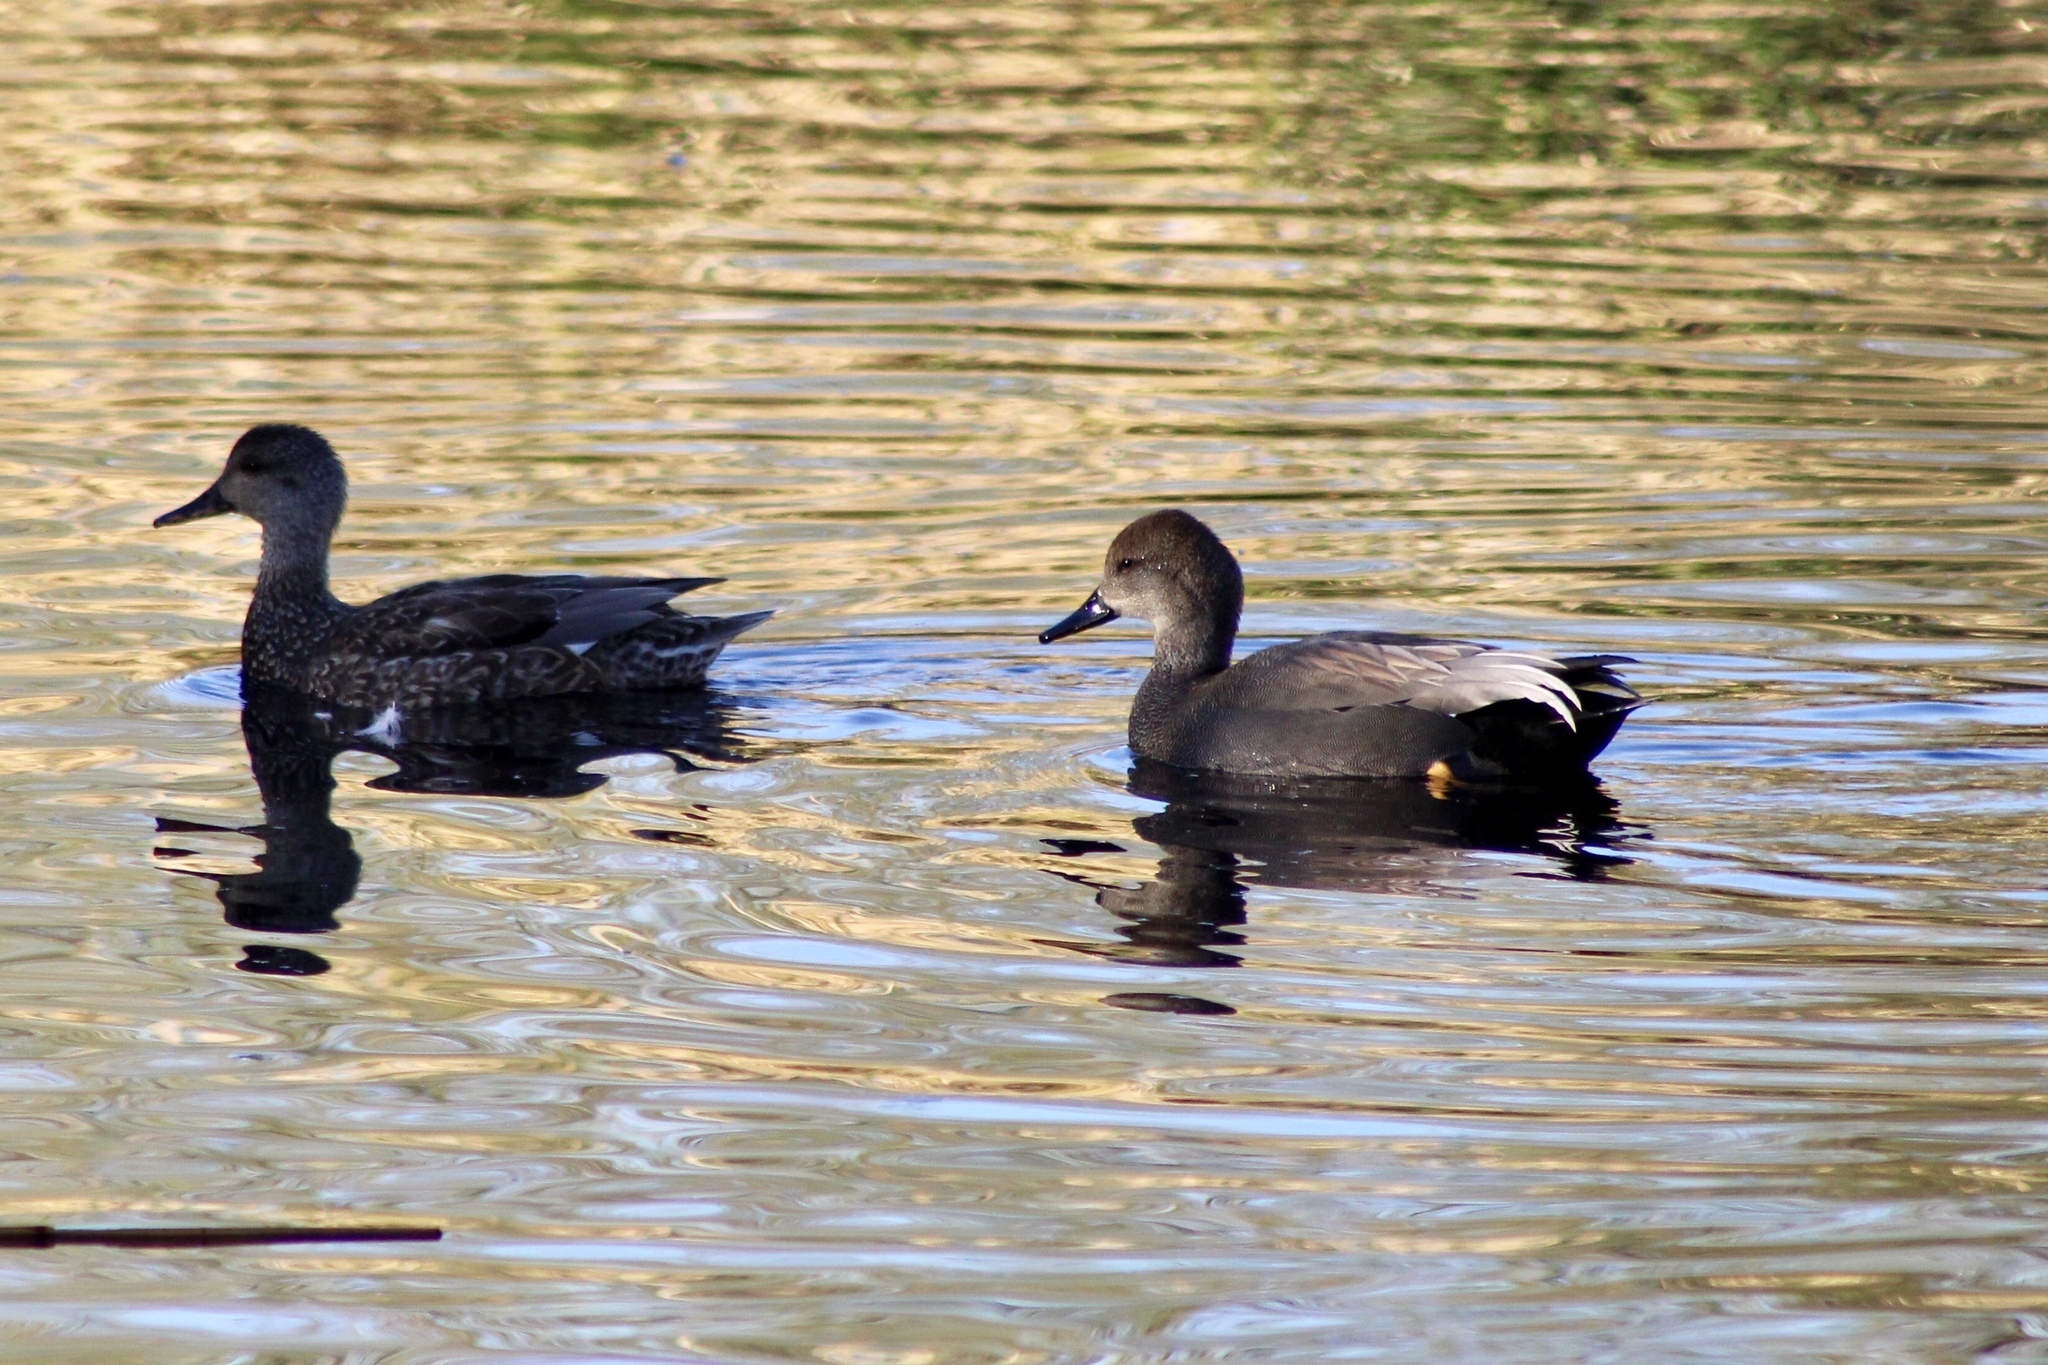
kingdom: Animalia
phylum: Chordata
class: Aves
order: Anseriformes
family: Anatidae
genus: Mareca
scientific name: Mareca strepera
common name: Gadwall
